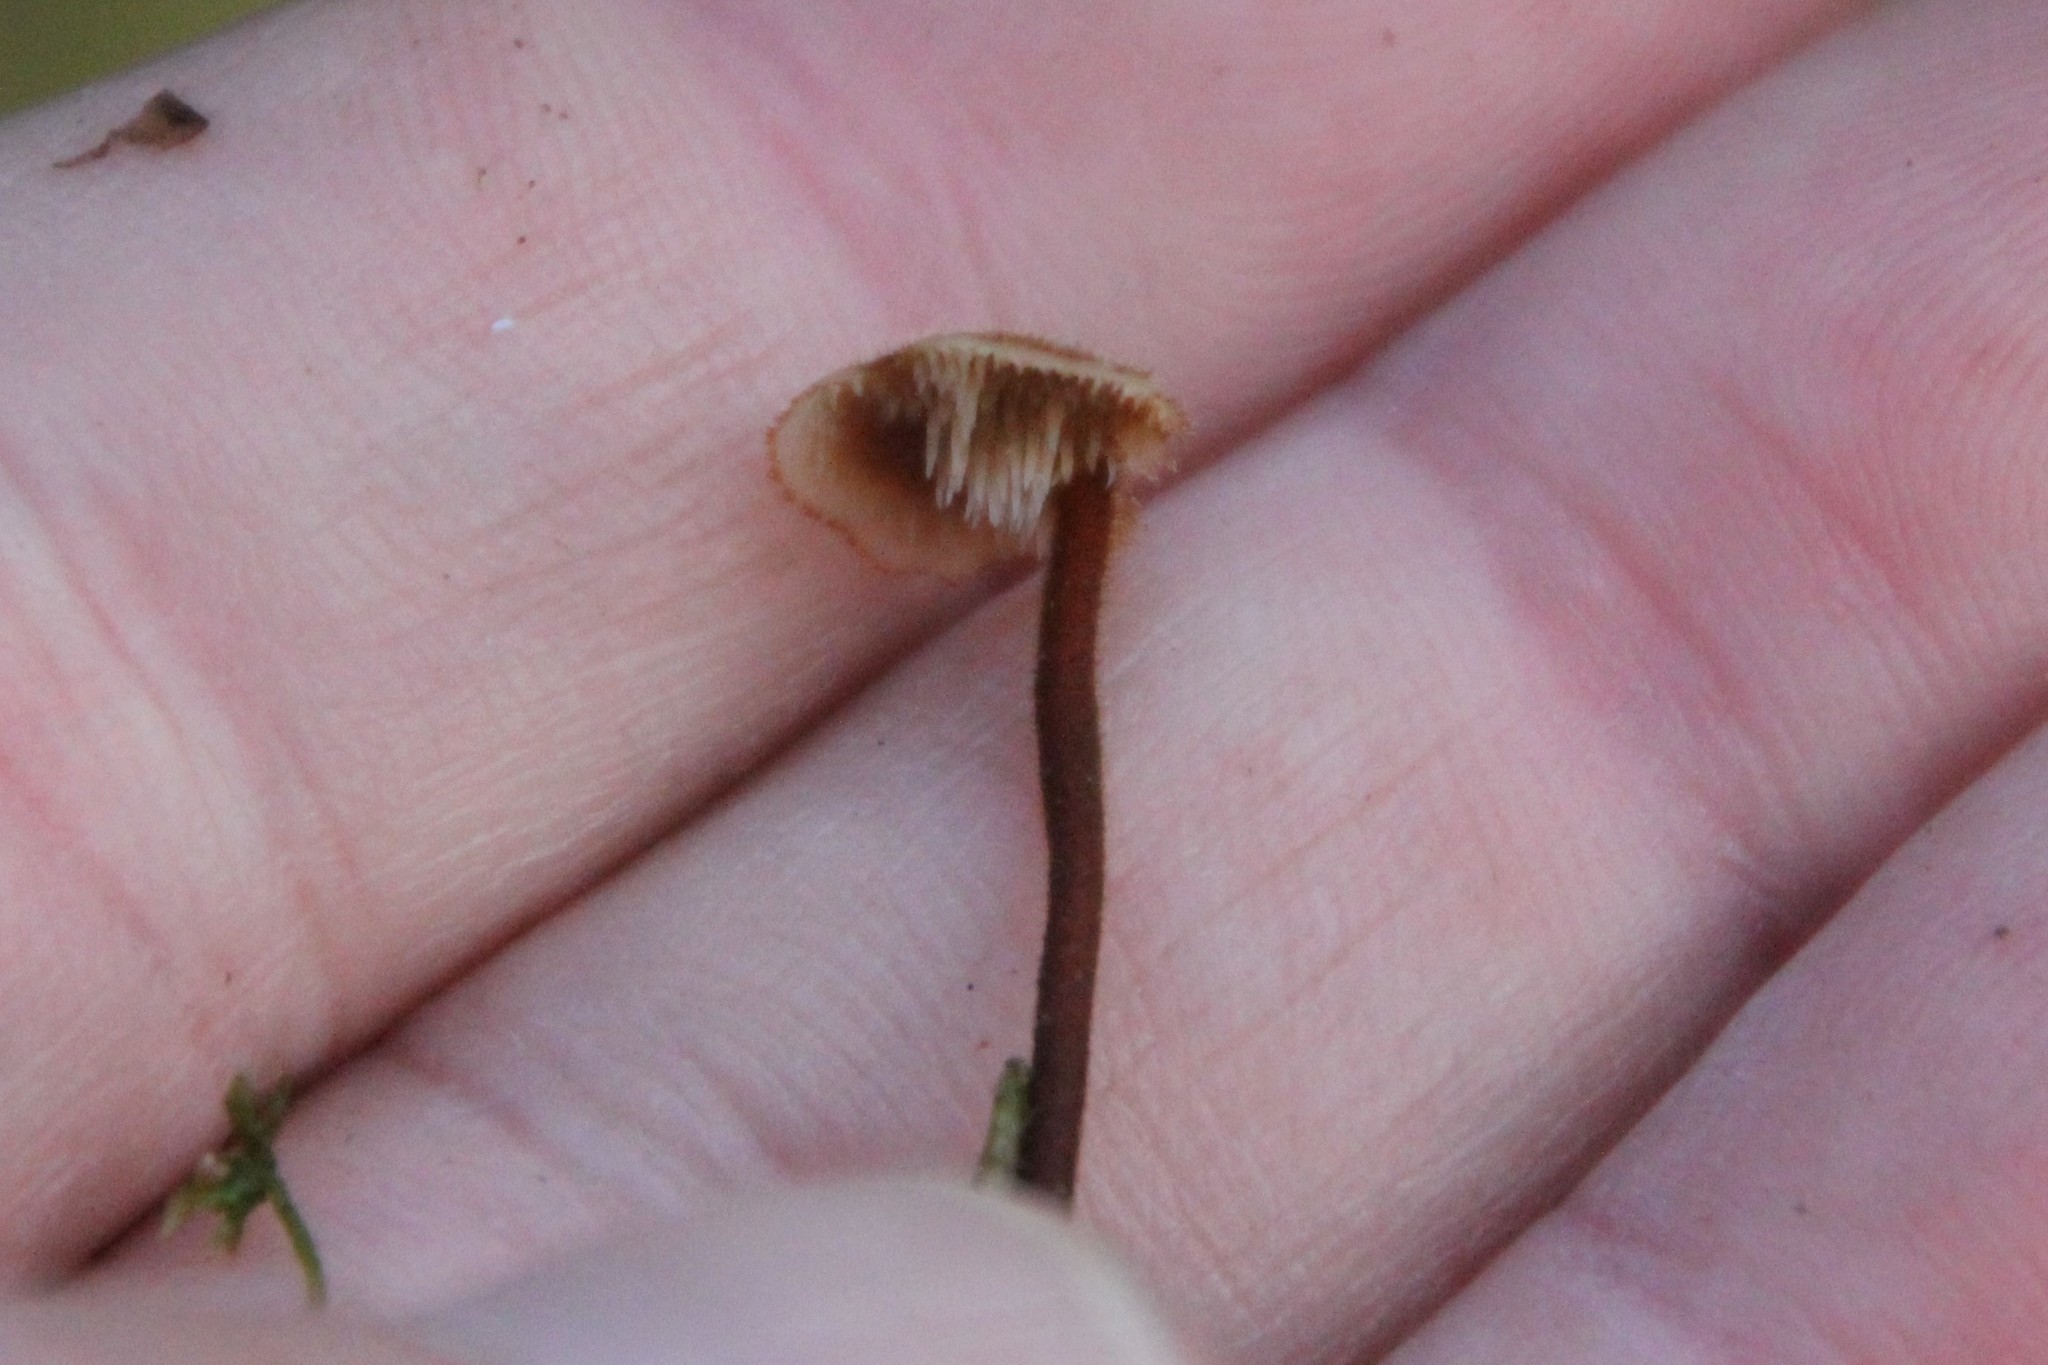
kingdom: Fungi
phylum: Basidiomycota
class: Agaricomycetes
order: Russulales
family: Auriscalpiaceae
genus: Auriscalpium
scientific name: Auriscalpium vulgare
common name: Earpick fungus
